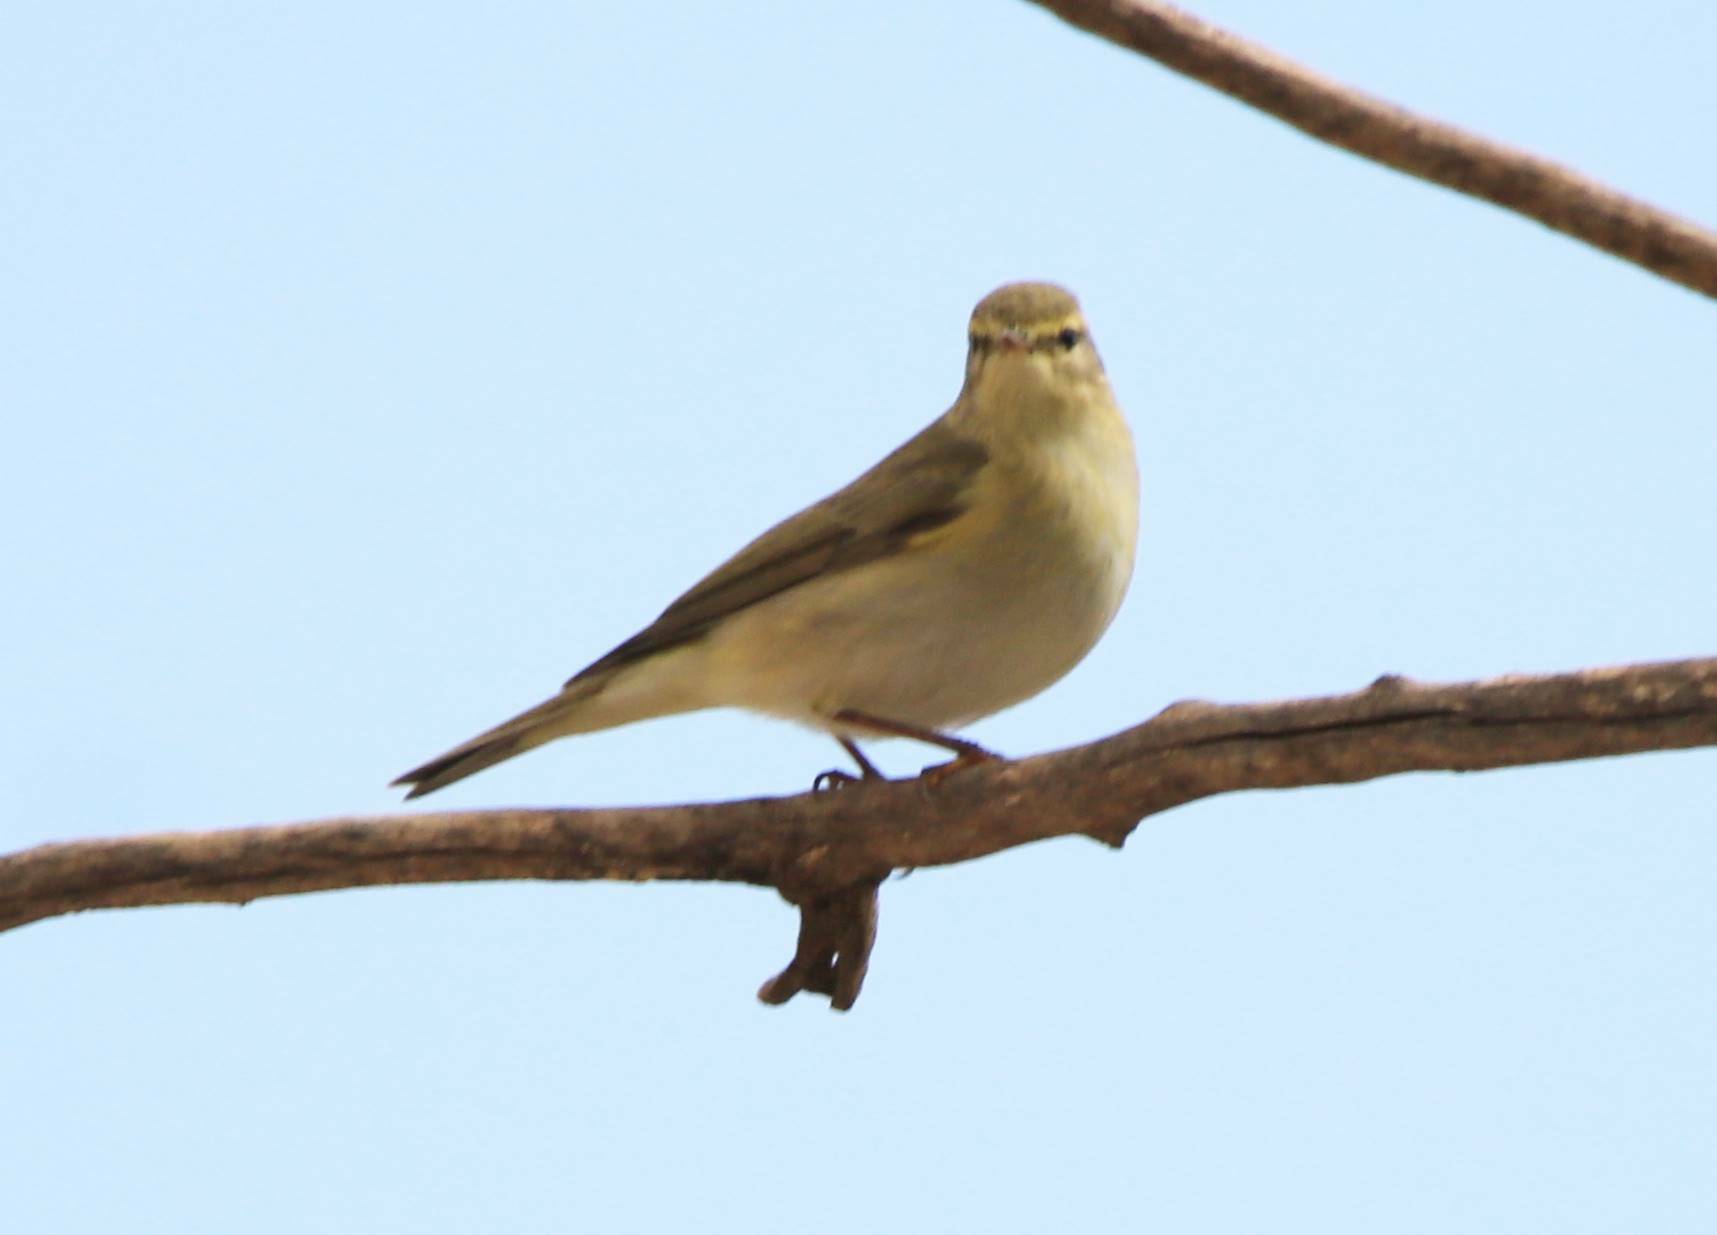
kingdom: Animalia
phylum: Chordata
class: Aves
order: Passeriformes
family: Phylloscopidae
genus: Phylloscopus
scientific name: Phylloscopus trochilus
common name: Willow warbler
